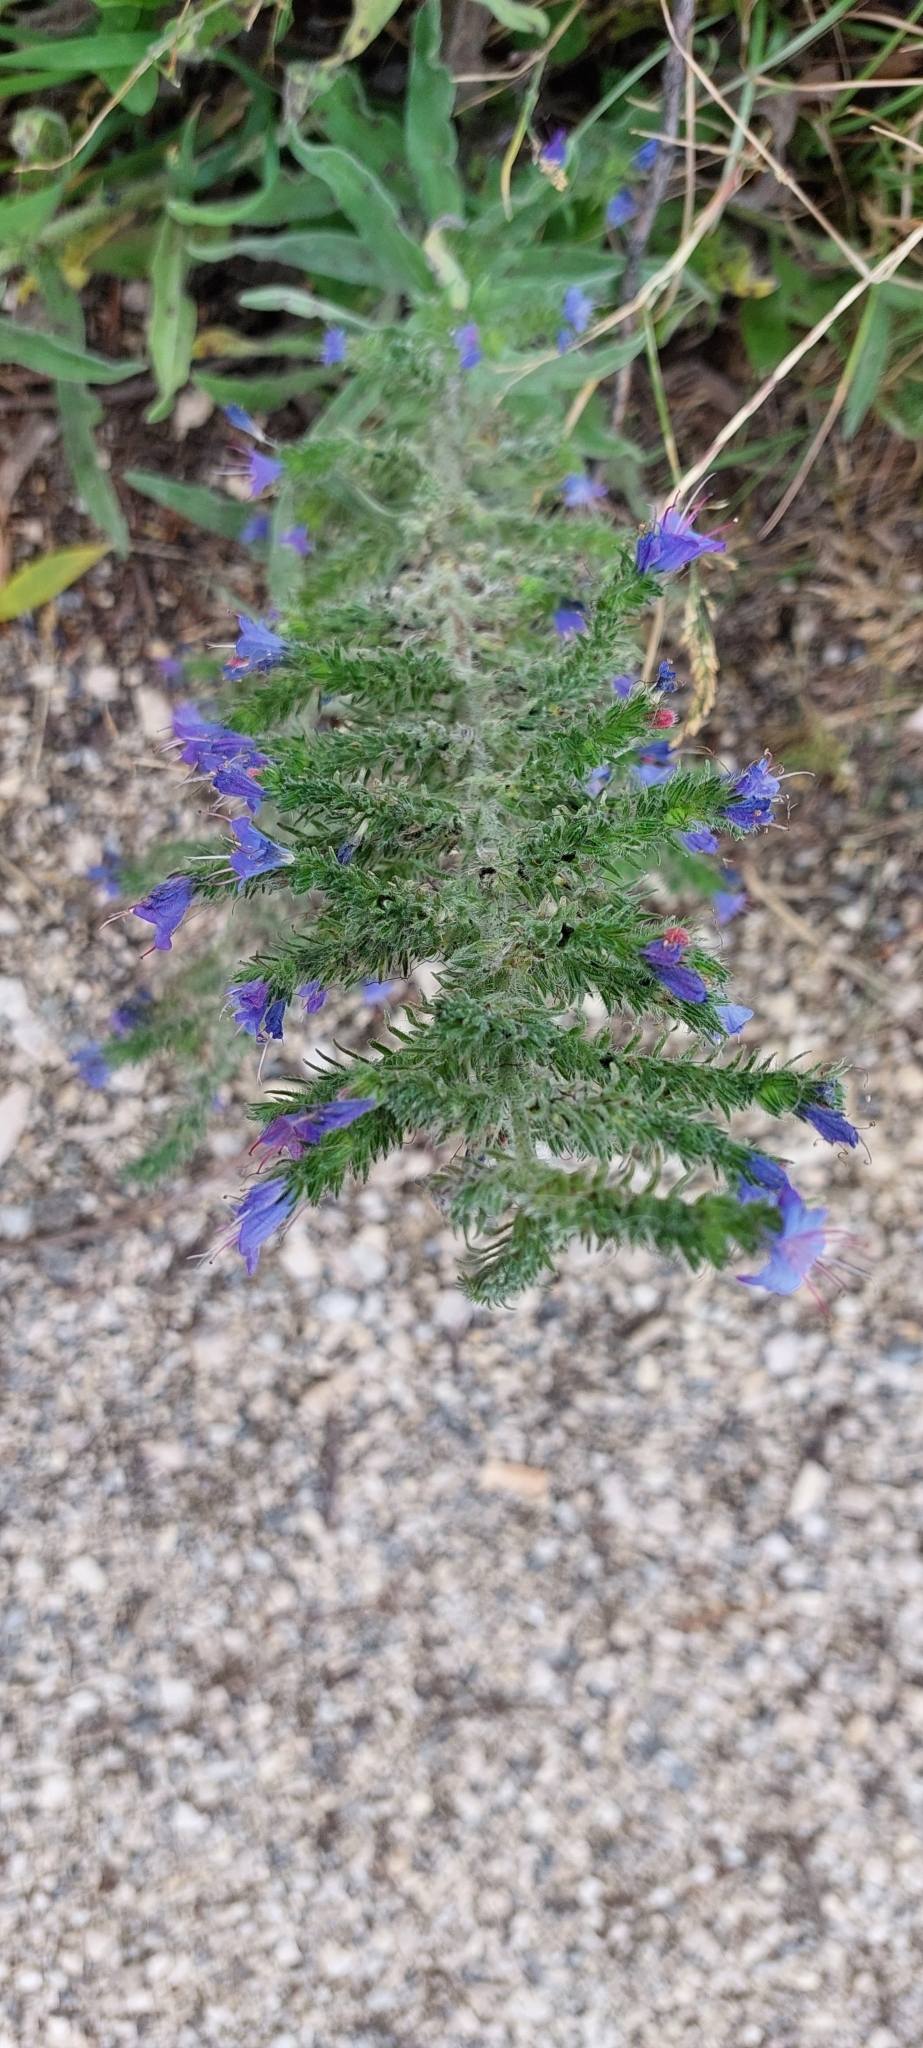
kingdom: Plantae
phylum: Tracheophyta
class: Magnoliopsida
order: Boraginales
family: Boraginaceae
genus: Echium
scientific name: Echium vulgare
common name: Common viper's bugloss
